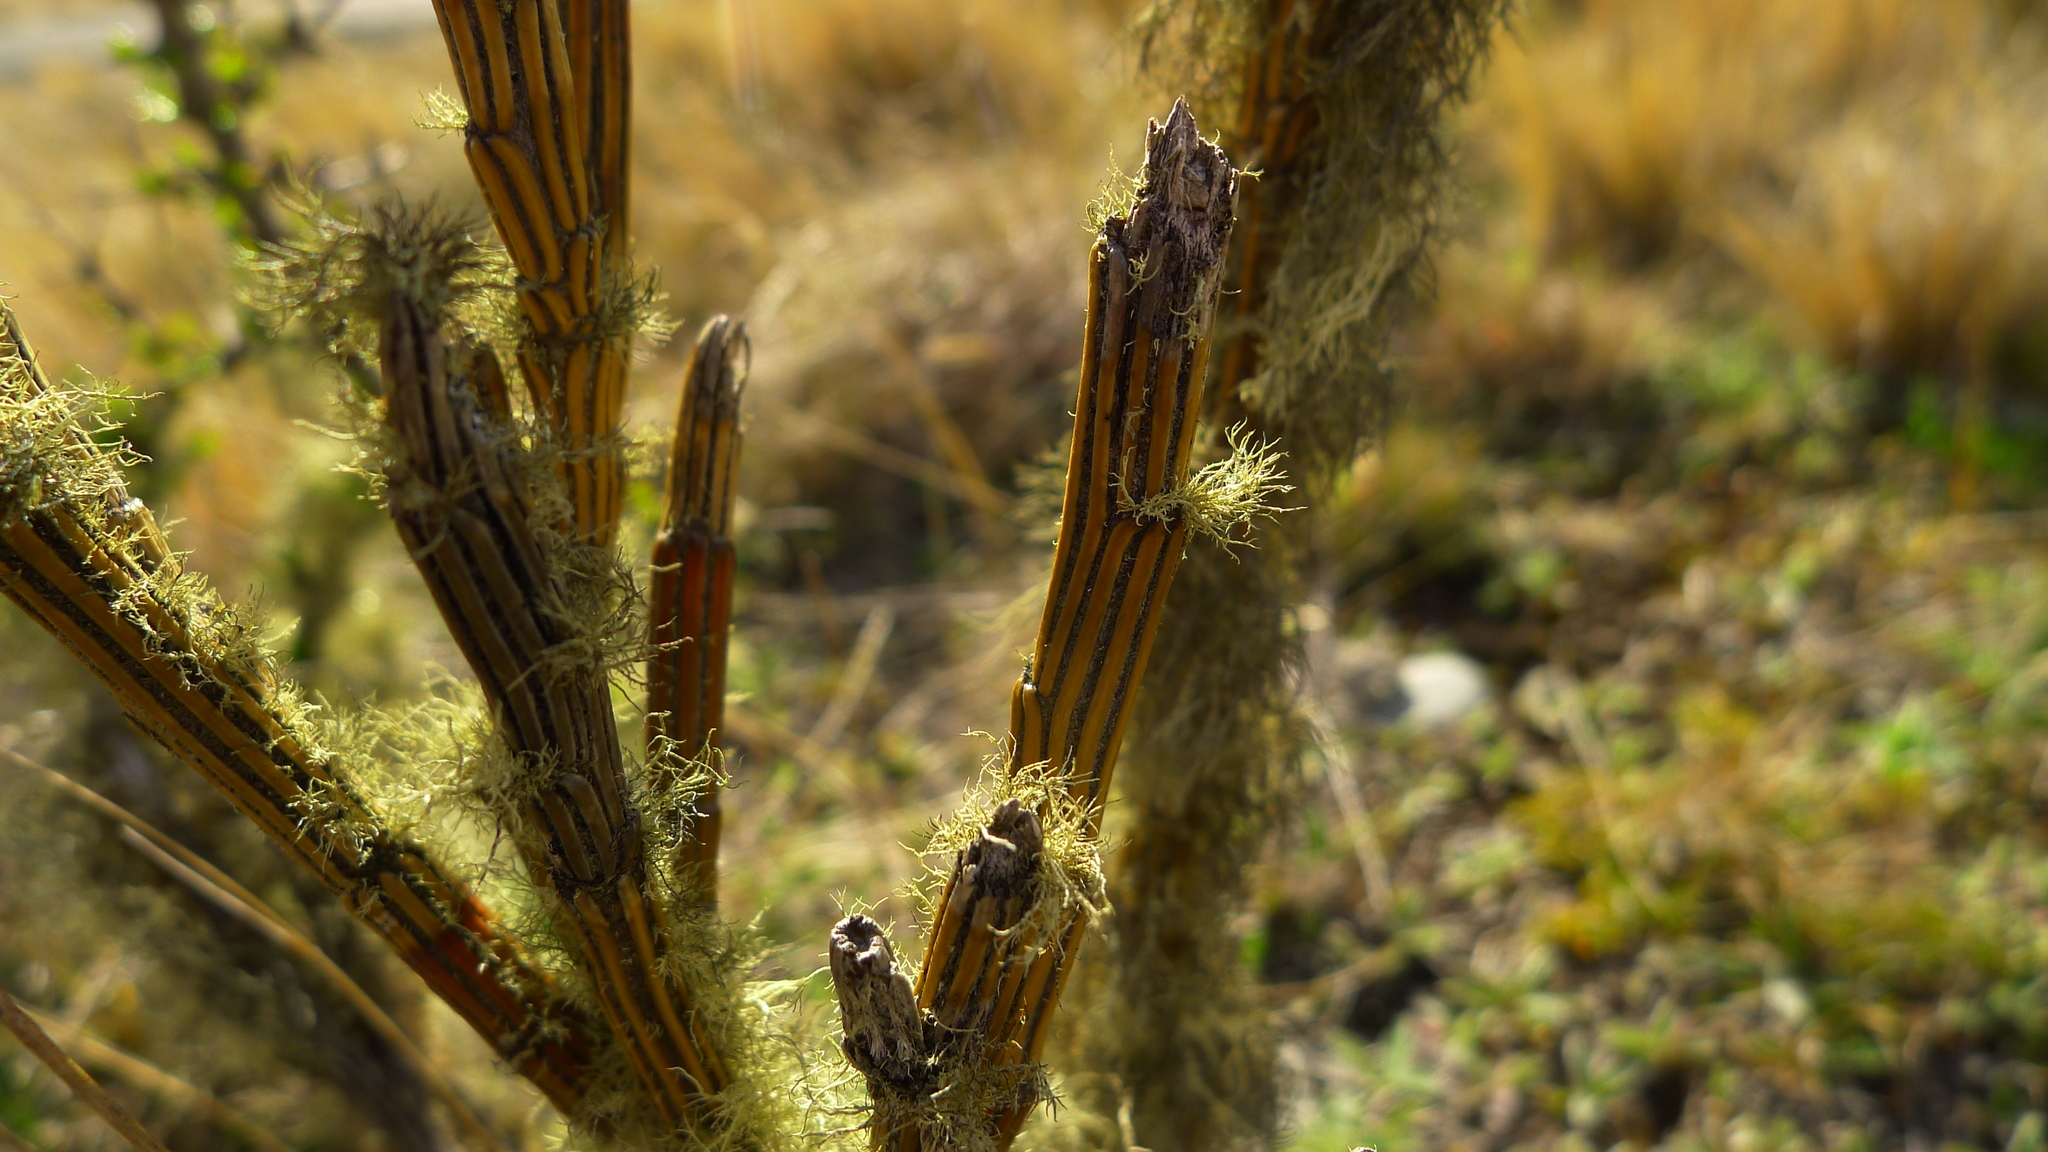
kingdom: Plantae
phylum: Tracheophyta
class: Magnoliopsida
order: Fabales
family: Fabaceae
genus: Carmichaelia
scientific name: Carmichaelia crassicaulis
